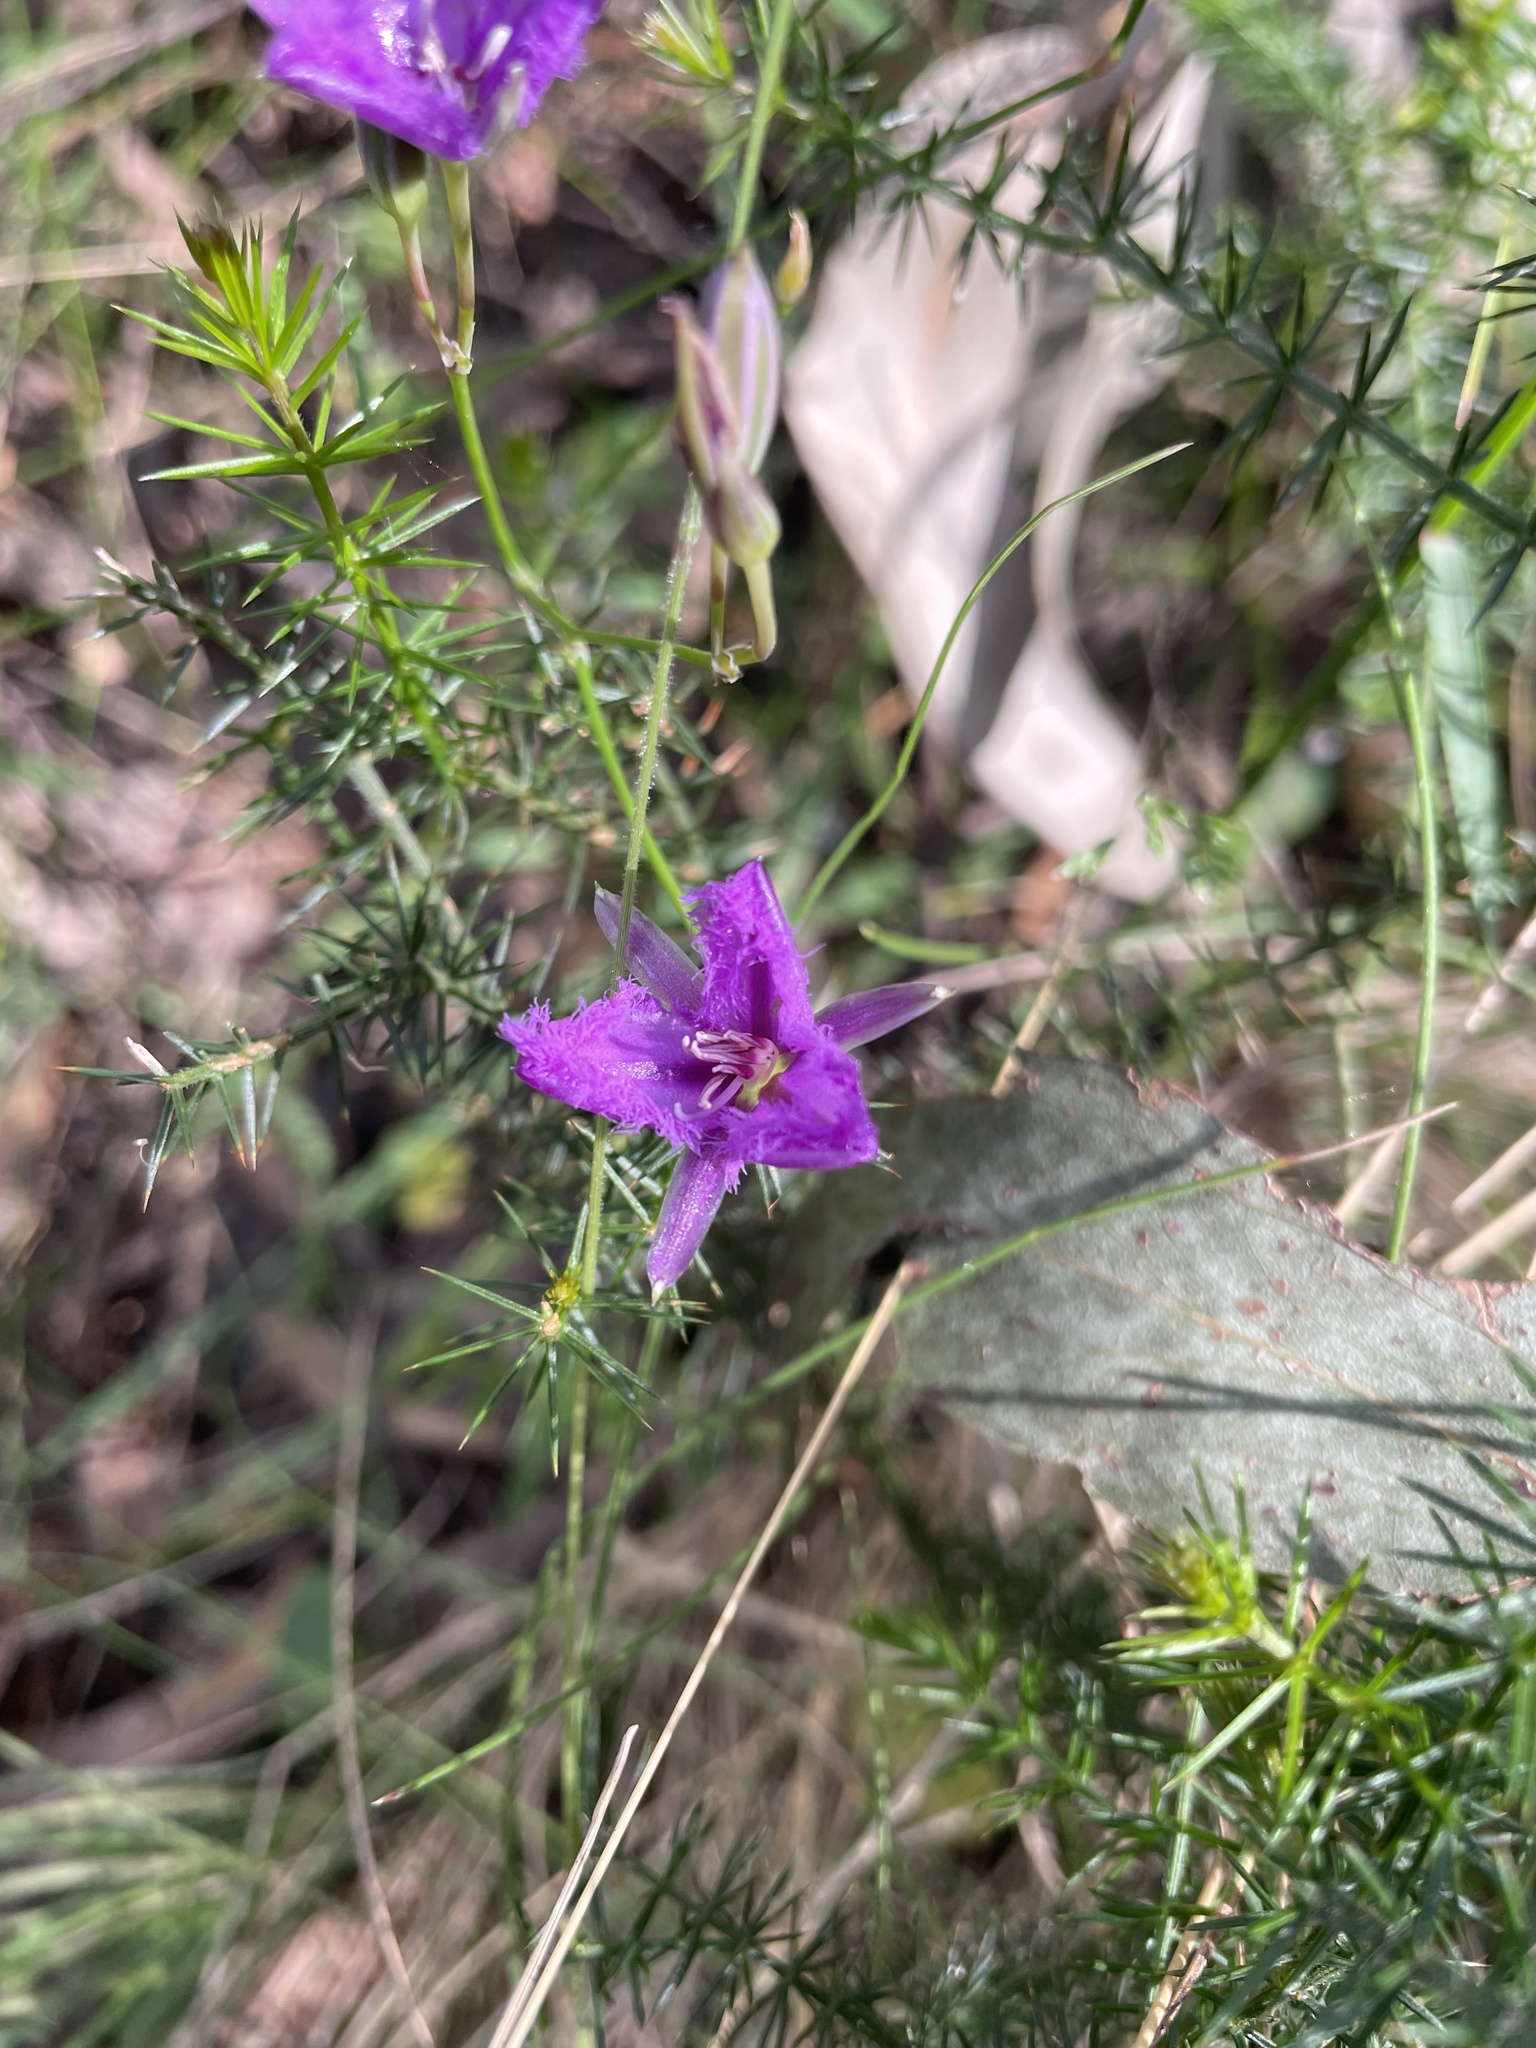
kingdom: Plantae
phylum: Tracheophyta
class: Liliopsida
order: Asparagales
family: Asparagaceae
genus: Thysanotus
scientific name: Thysanotus tuberosus
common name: Common fringed-lily
